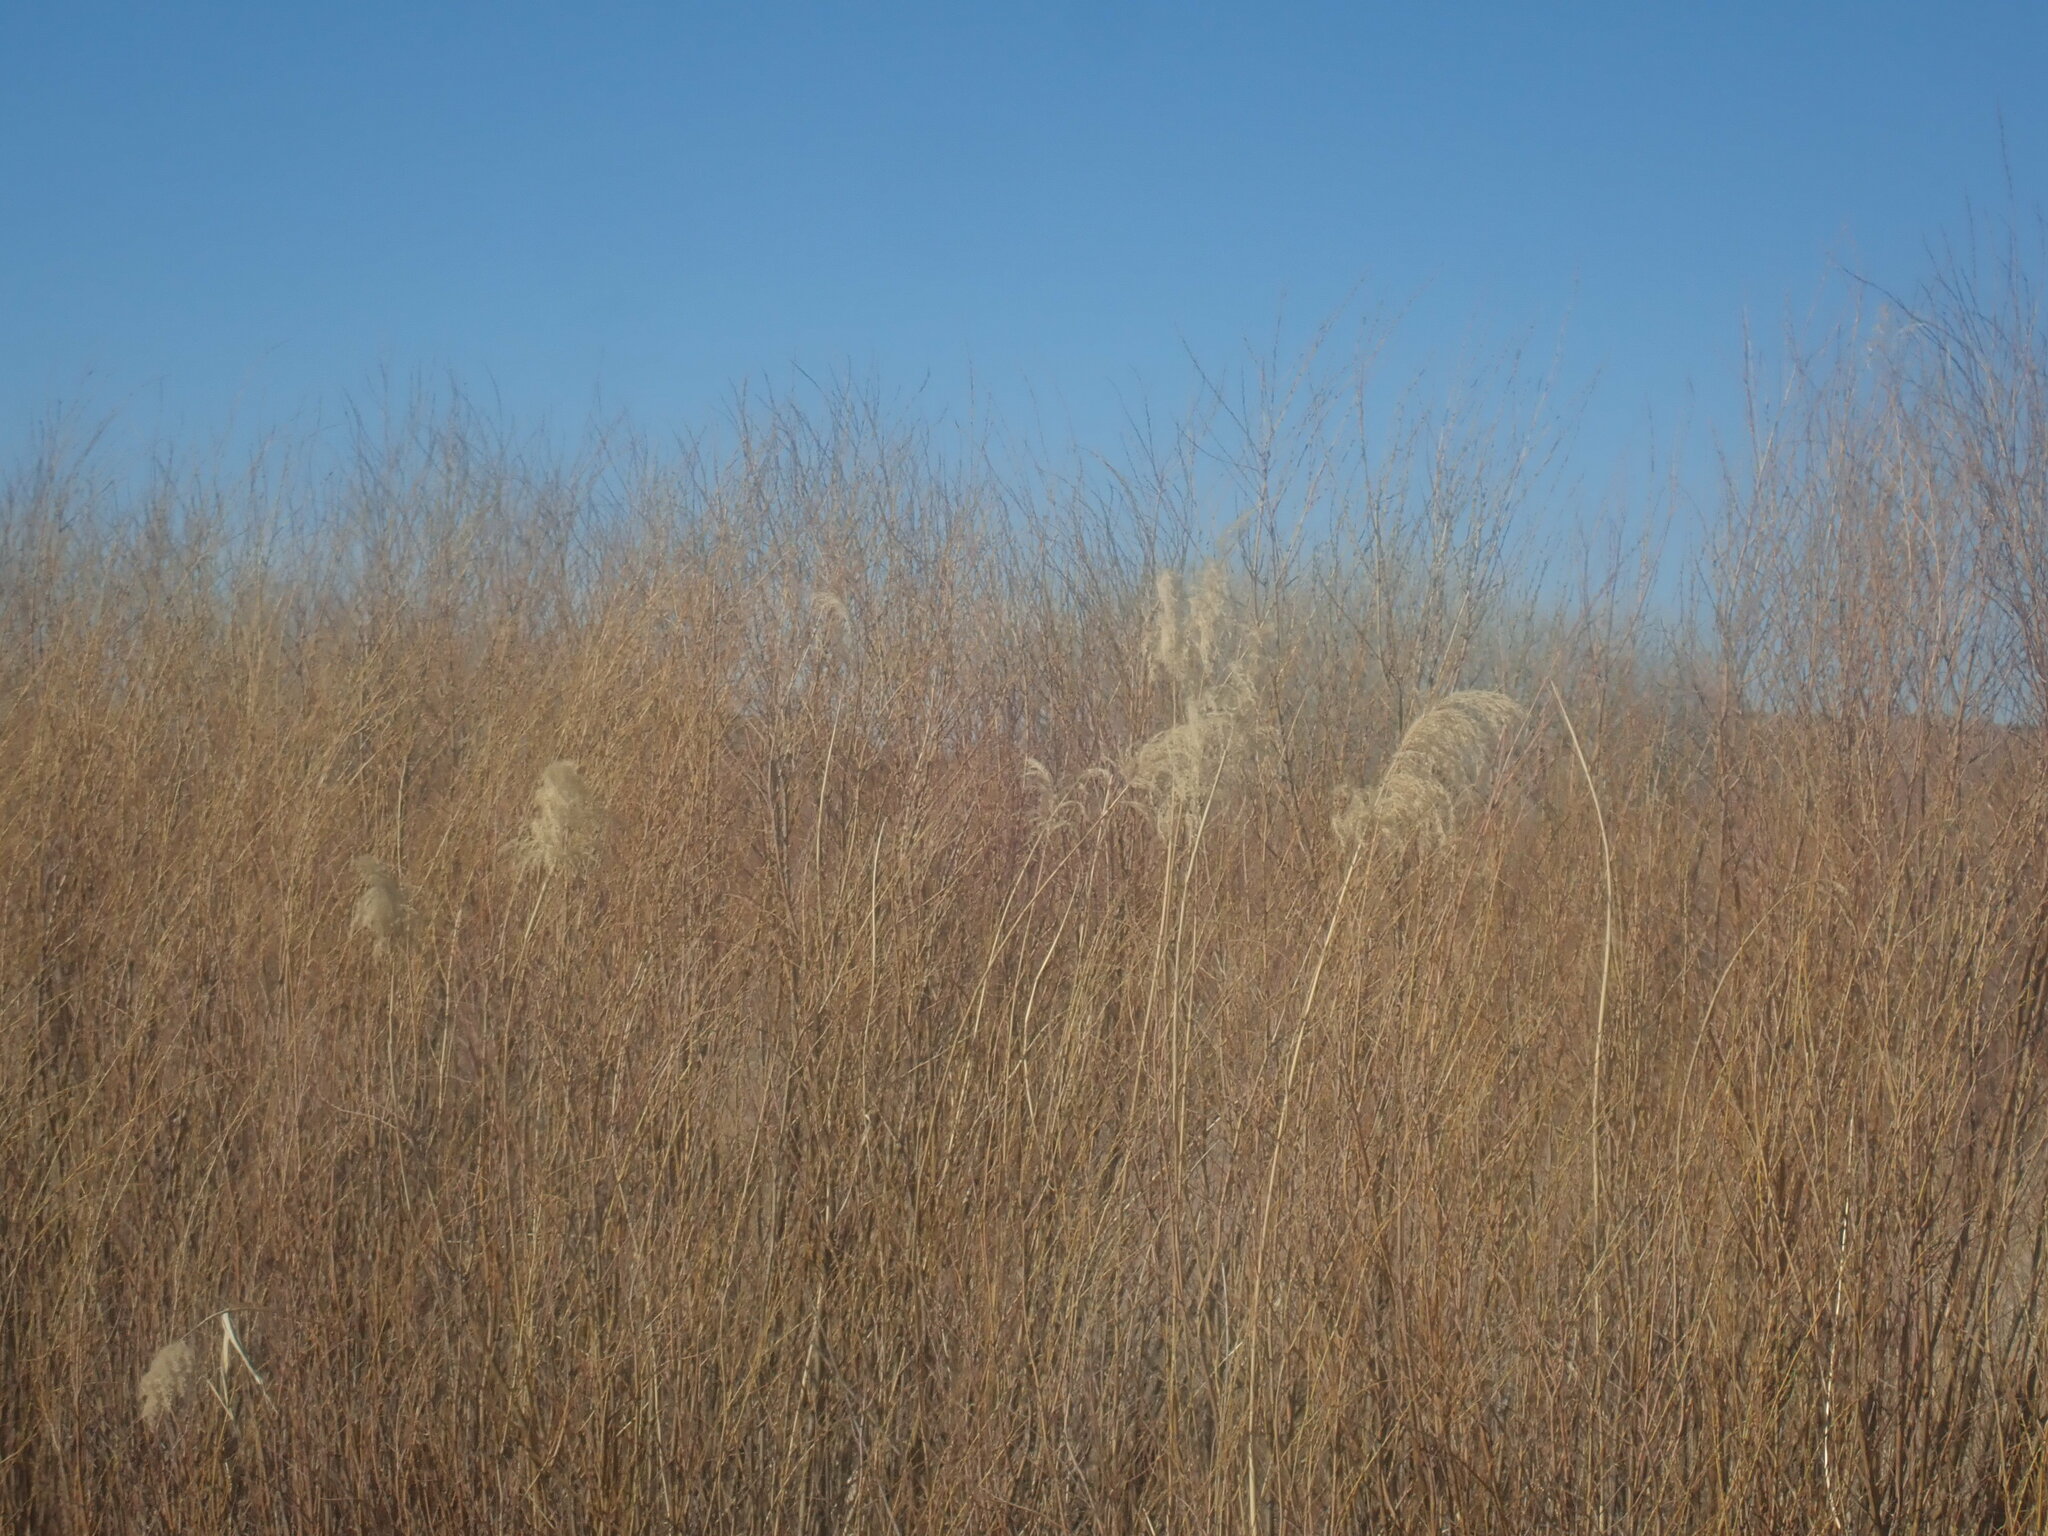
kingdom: Plantae
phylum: Tracheophyta
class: Liliopsida
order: Poales
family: Poaceae
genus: Phragmites
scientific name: Phragmites australis
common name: Common reed
